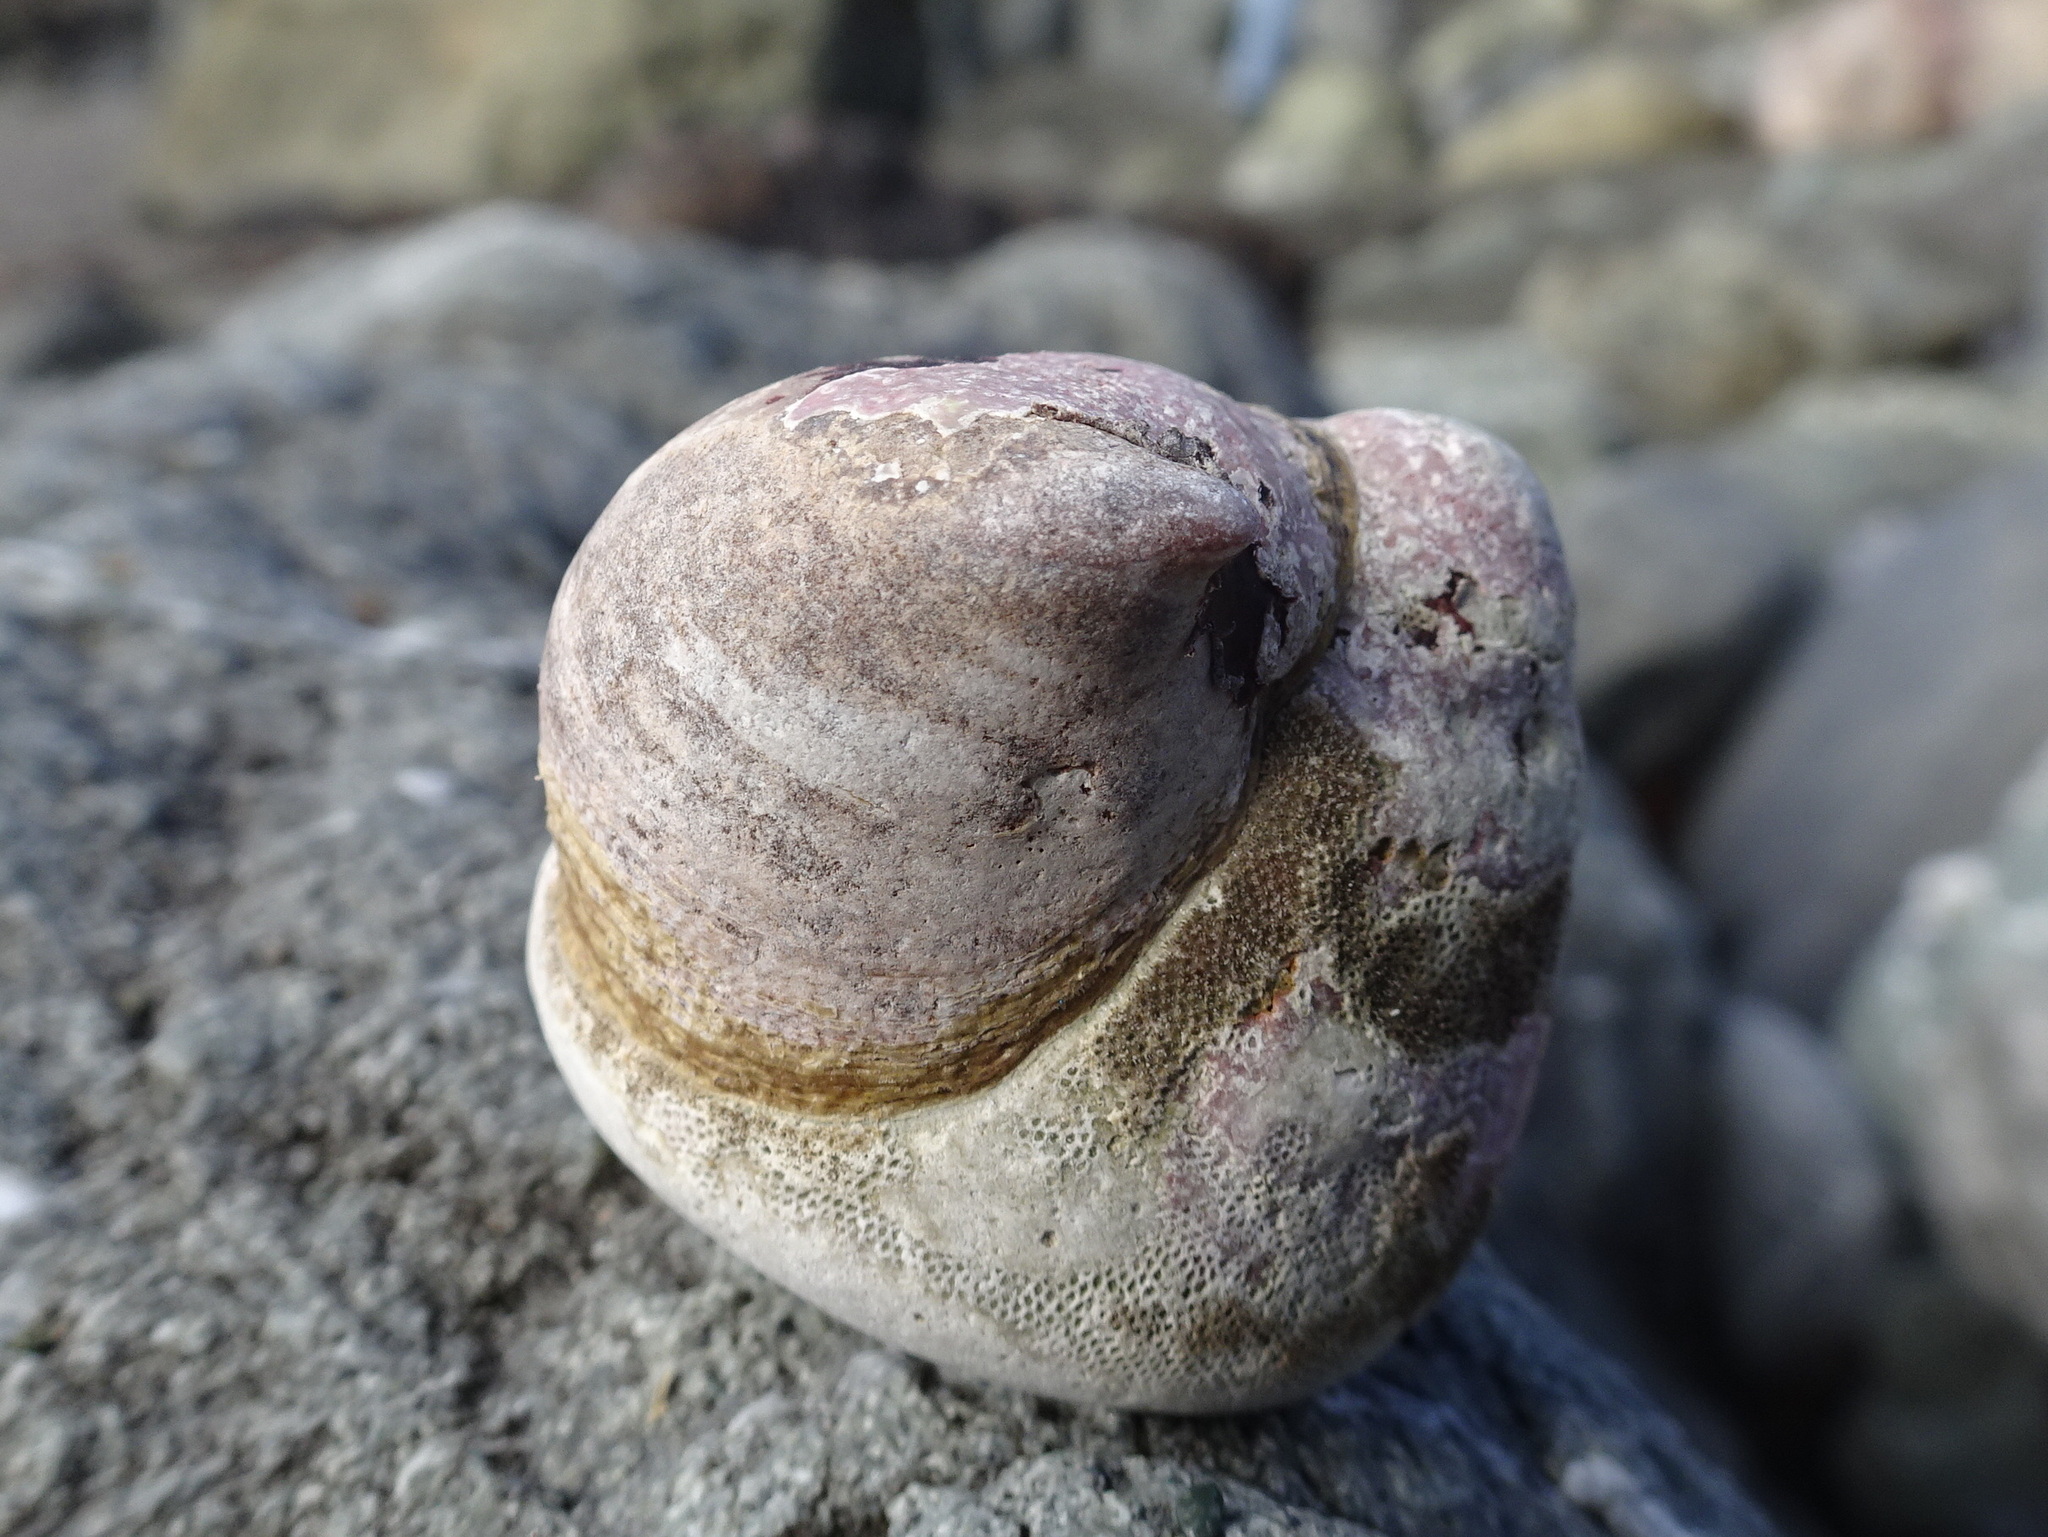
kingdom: Animalia
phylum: Mollusca
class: Gastropoda
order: Littorinimorpha
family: Calyptraeidae
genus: Crepidula
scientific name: Crepidula adunca
